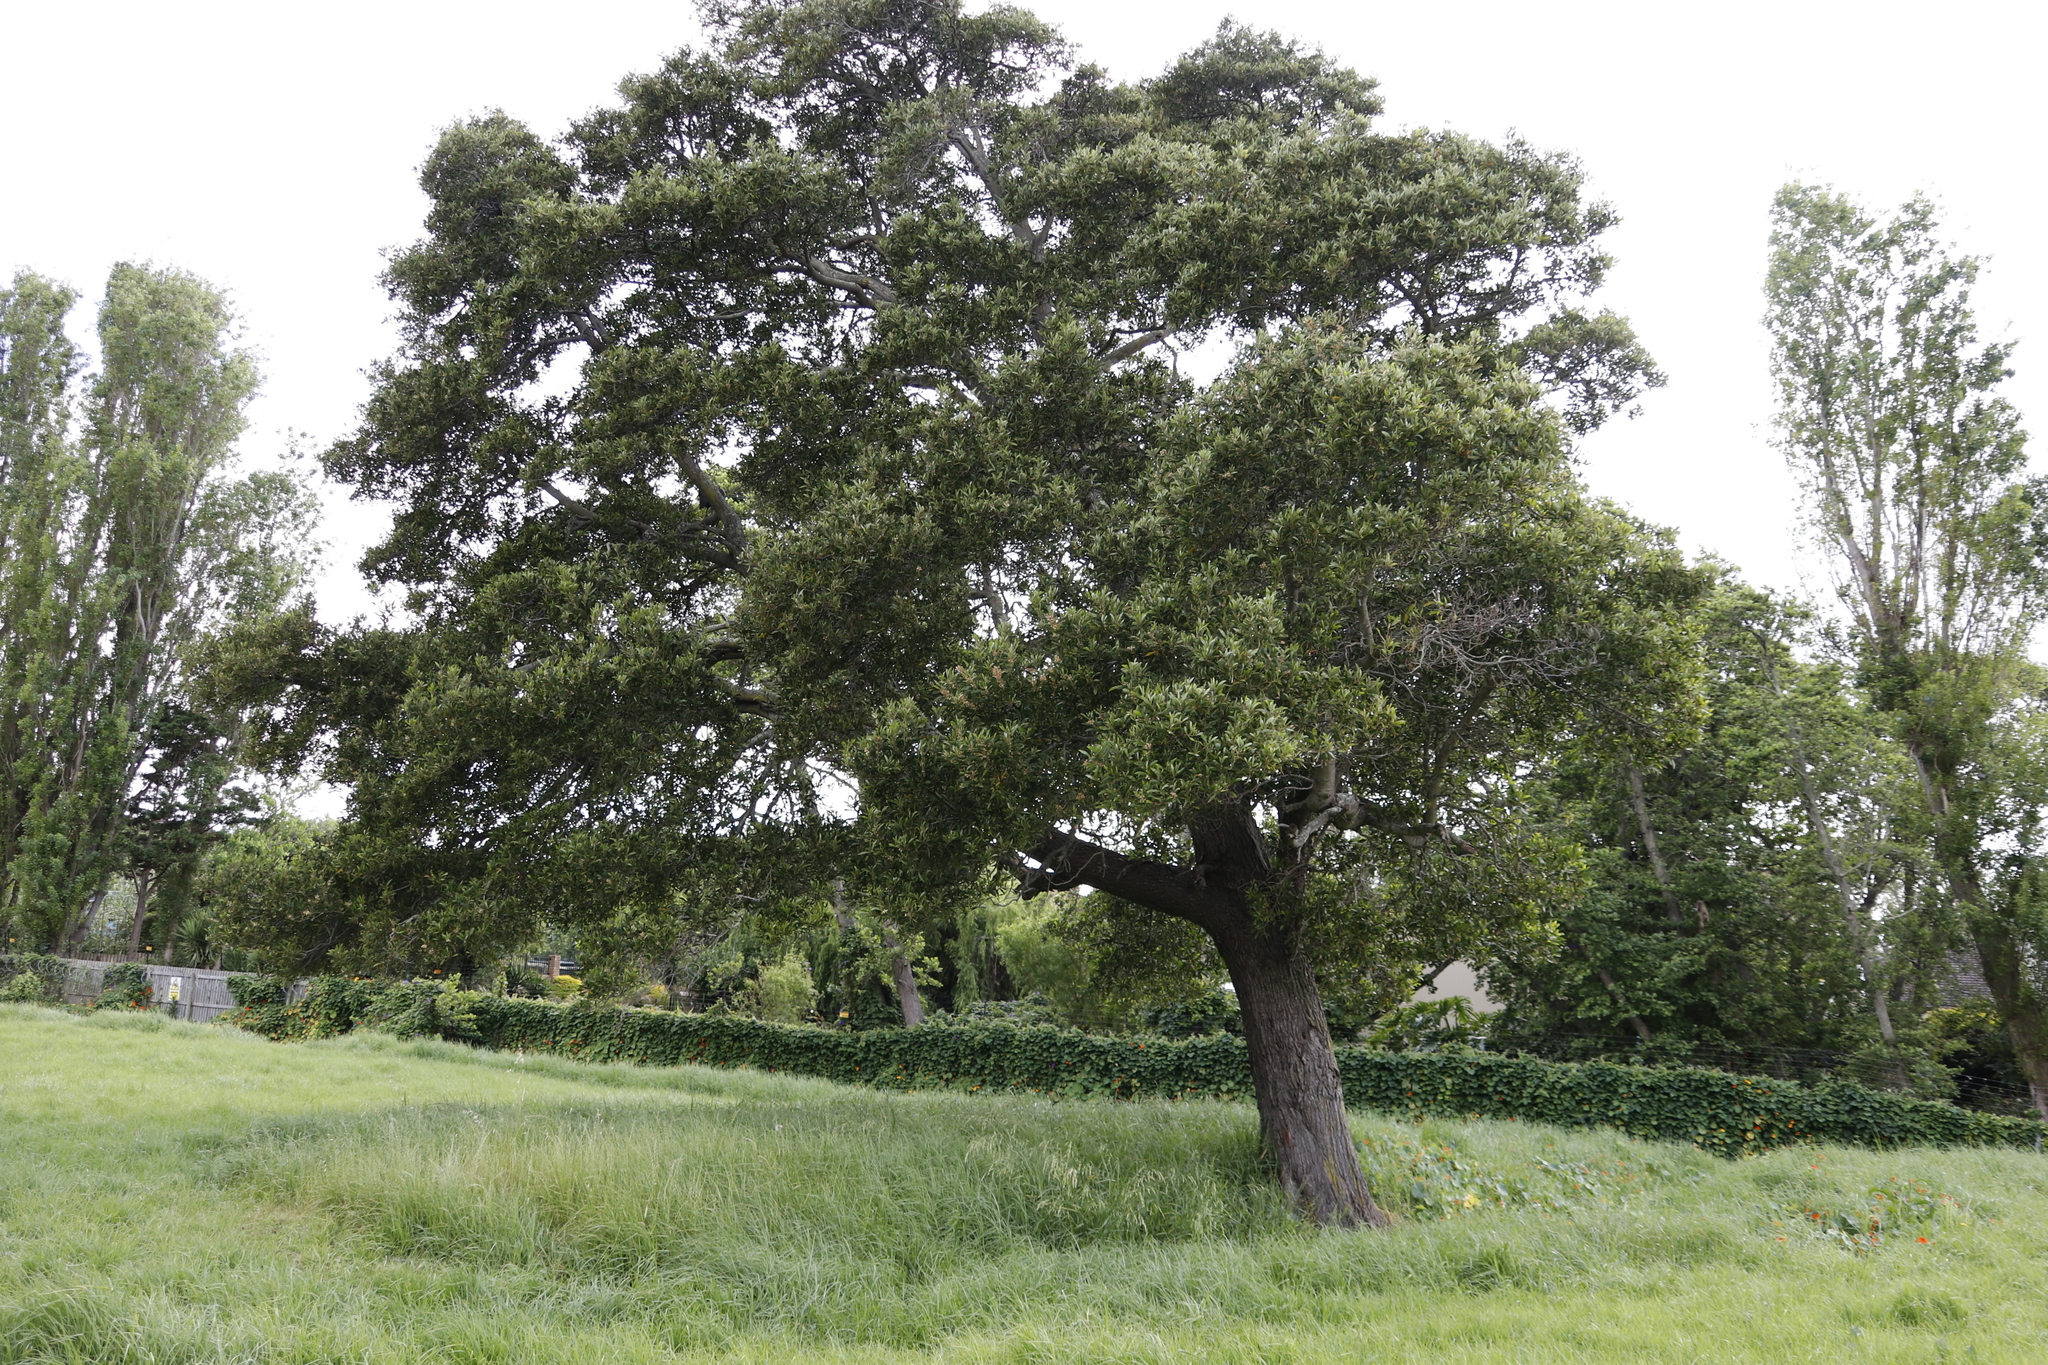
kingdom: Plantae
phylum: Tracheophyta
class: Magnoliopsida
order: Fabales
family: Fabaceae
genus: Acacia
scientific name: Acacia melanoxylon
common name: Blackwood
